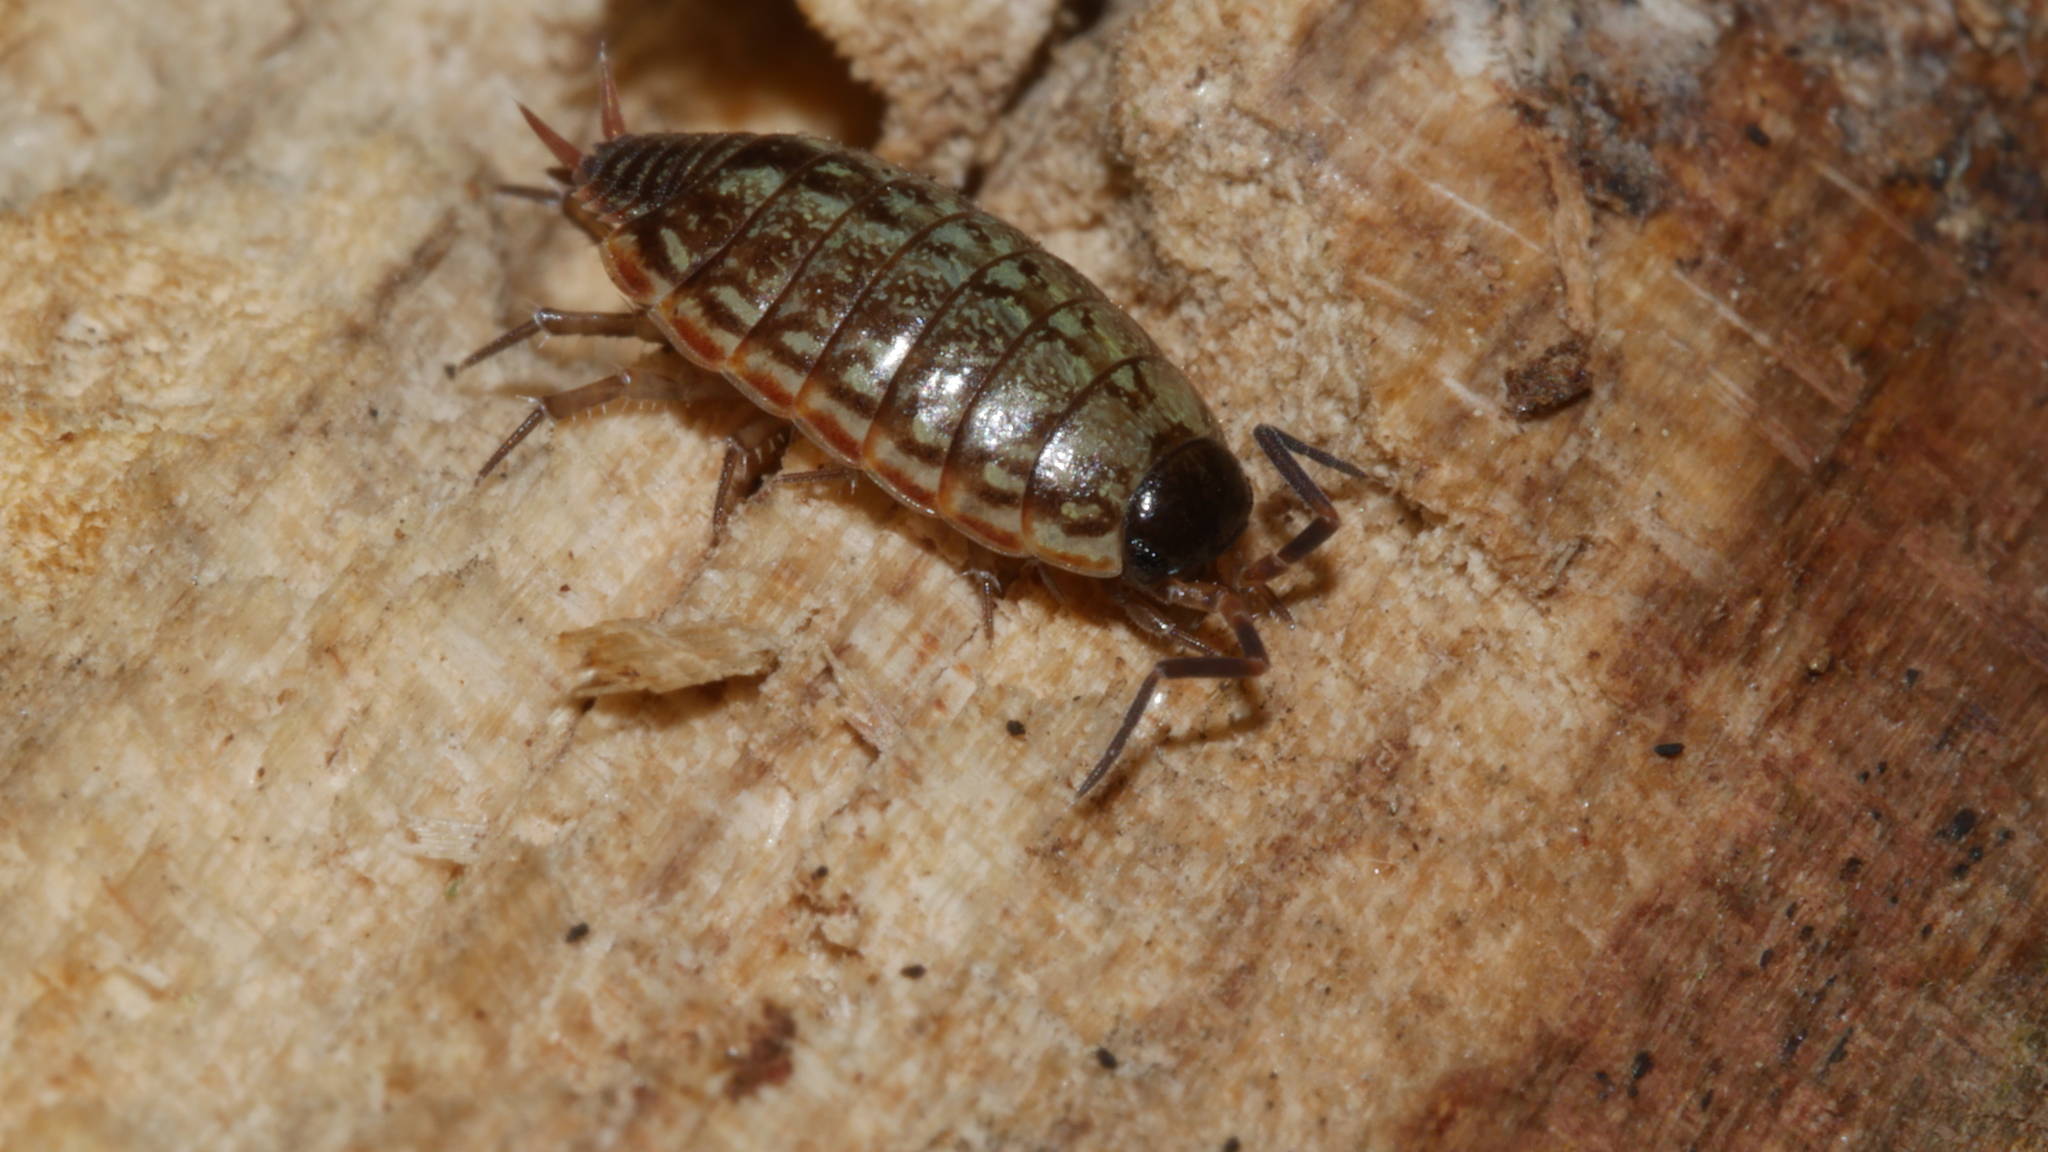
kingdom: Animalia
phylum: Arthropoda
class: Malacostraca
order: Isopoda
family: Philosciidae
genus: Philoscia
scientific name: Philoscia muscorum
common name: Common striped woodlouse
